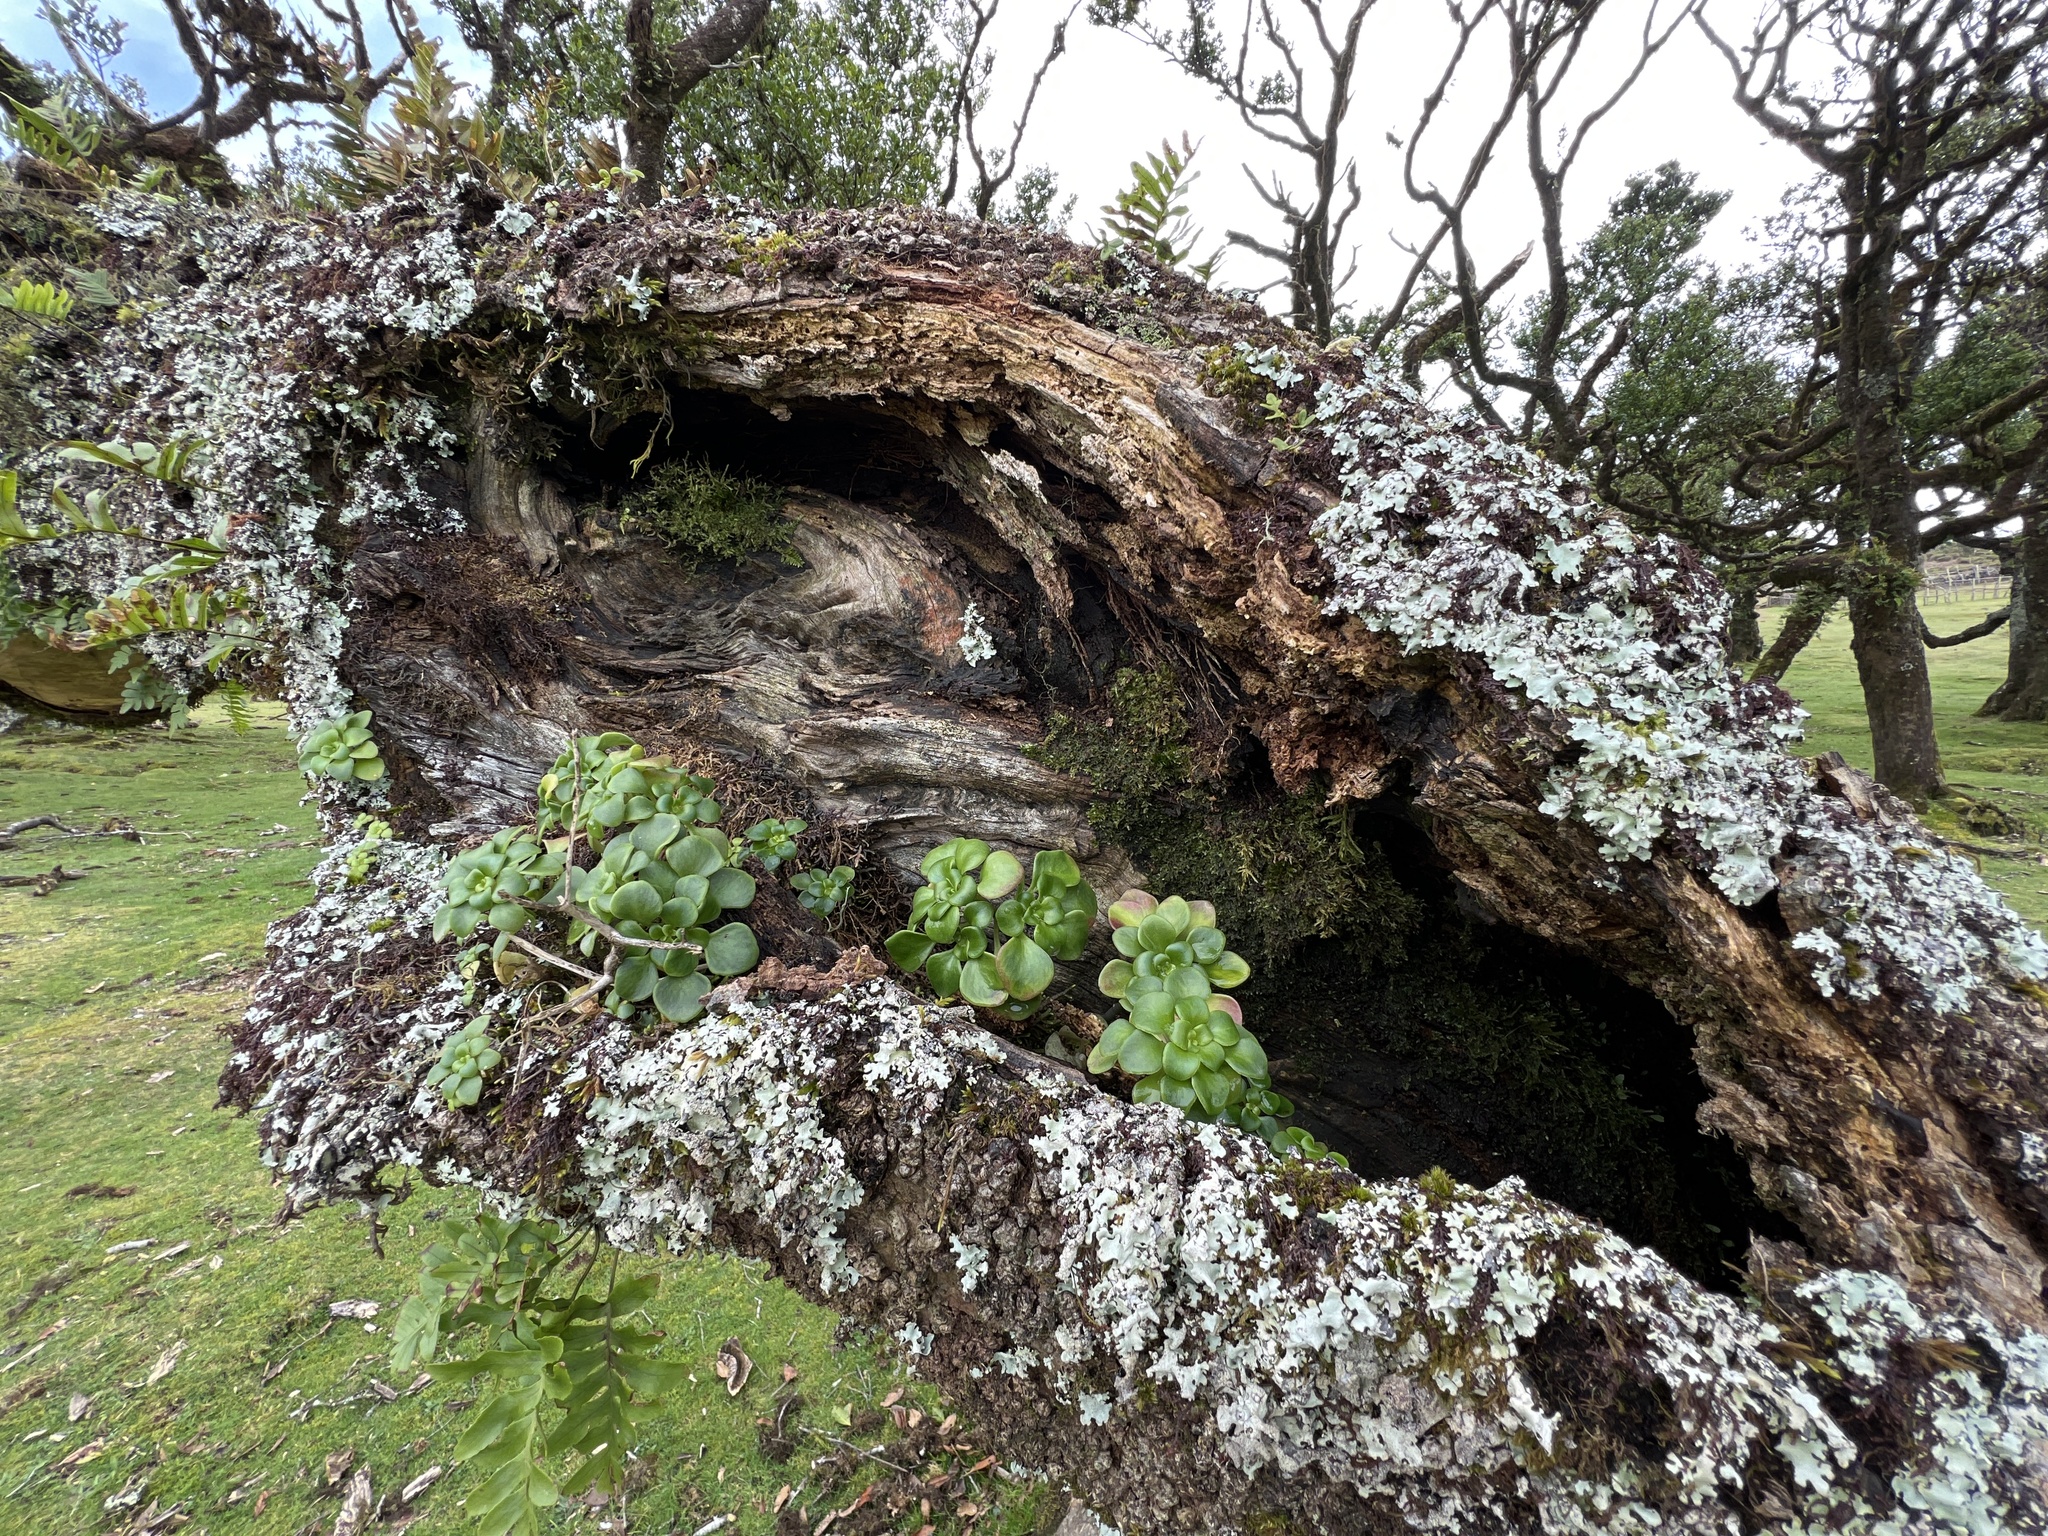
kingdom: Plantae
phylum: Tracheophyta
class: Magnoliopsida
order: Saxifragales
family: Crassulaceae
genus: Crassula
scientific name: Crassula multicava
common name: Cape province pygmyweed
